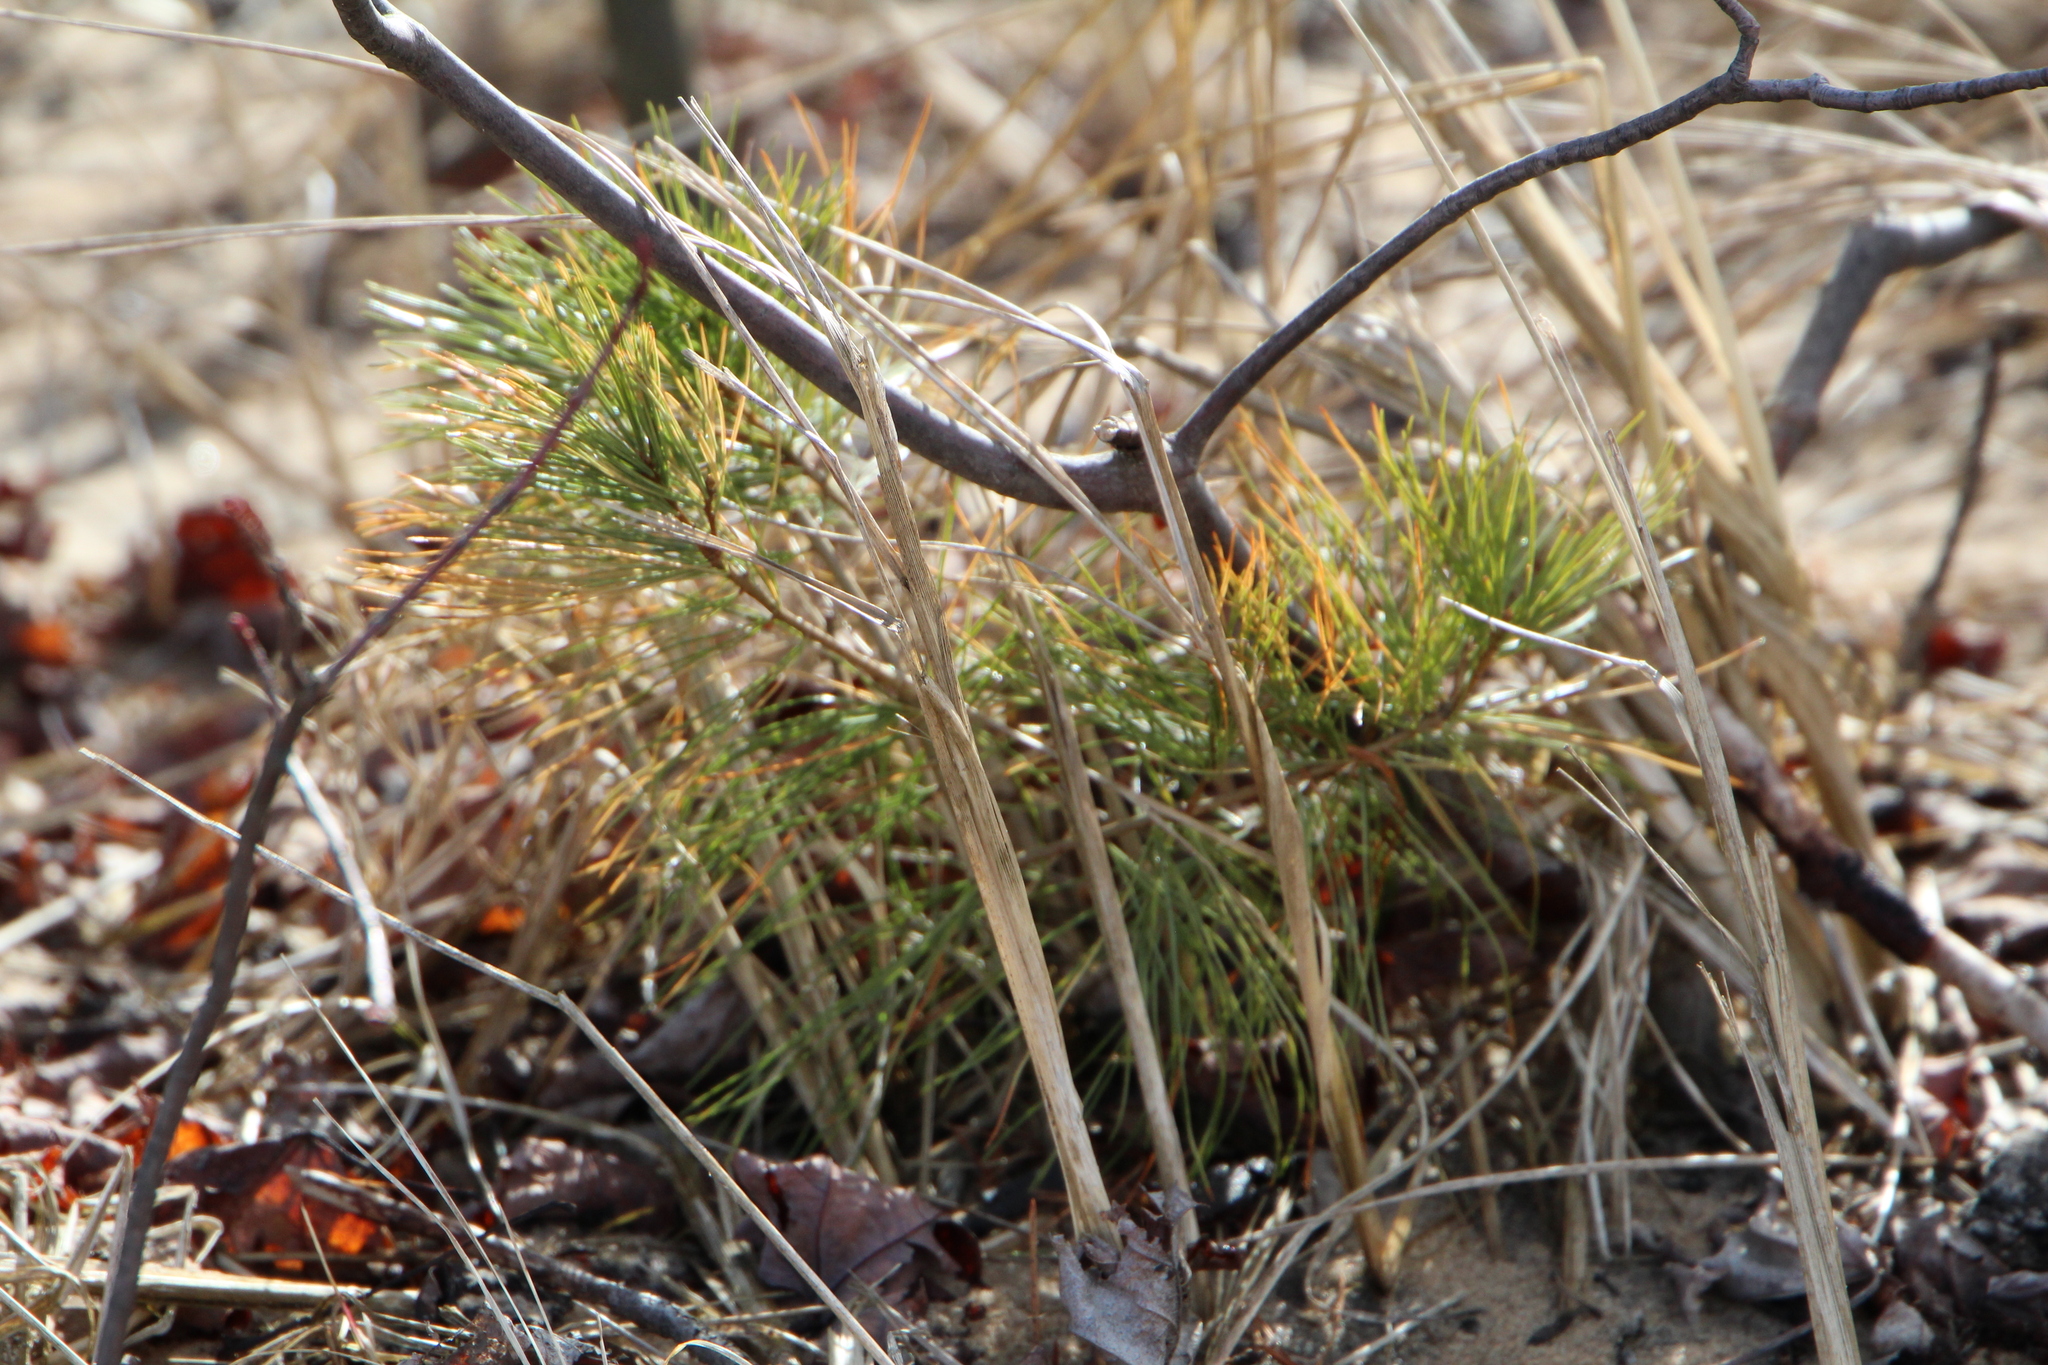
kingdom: Plantae
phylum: Tracheophyta
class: Pinopsida
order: Pinales
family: Pinaceae
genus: Pinus
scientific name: Pinus strobus
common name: Weymouth pine
